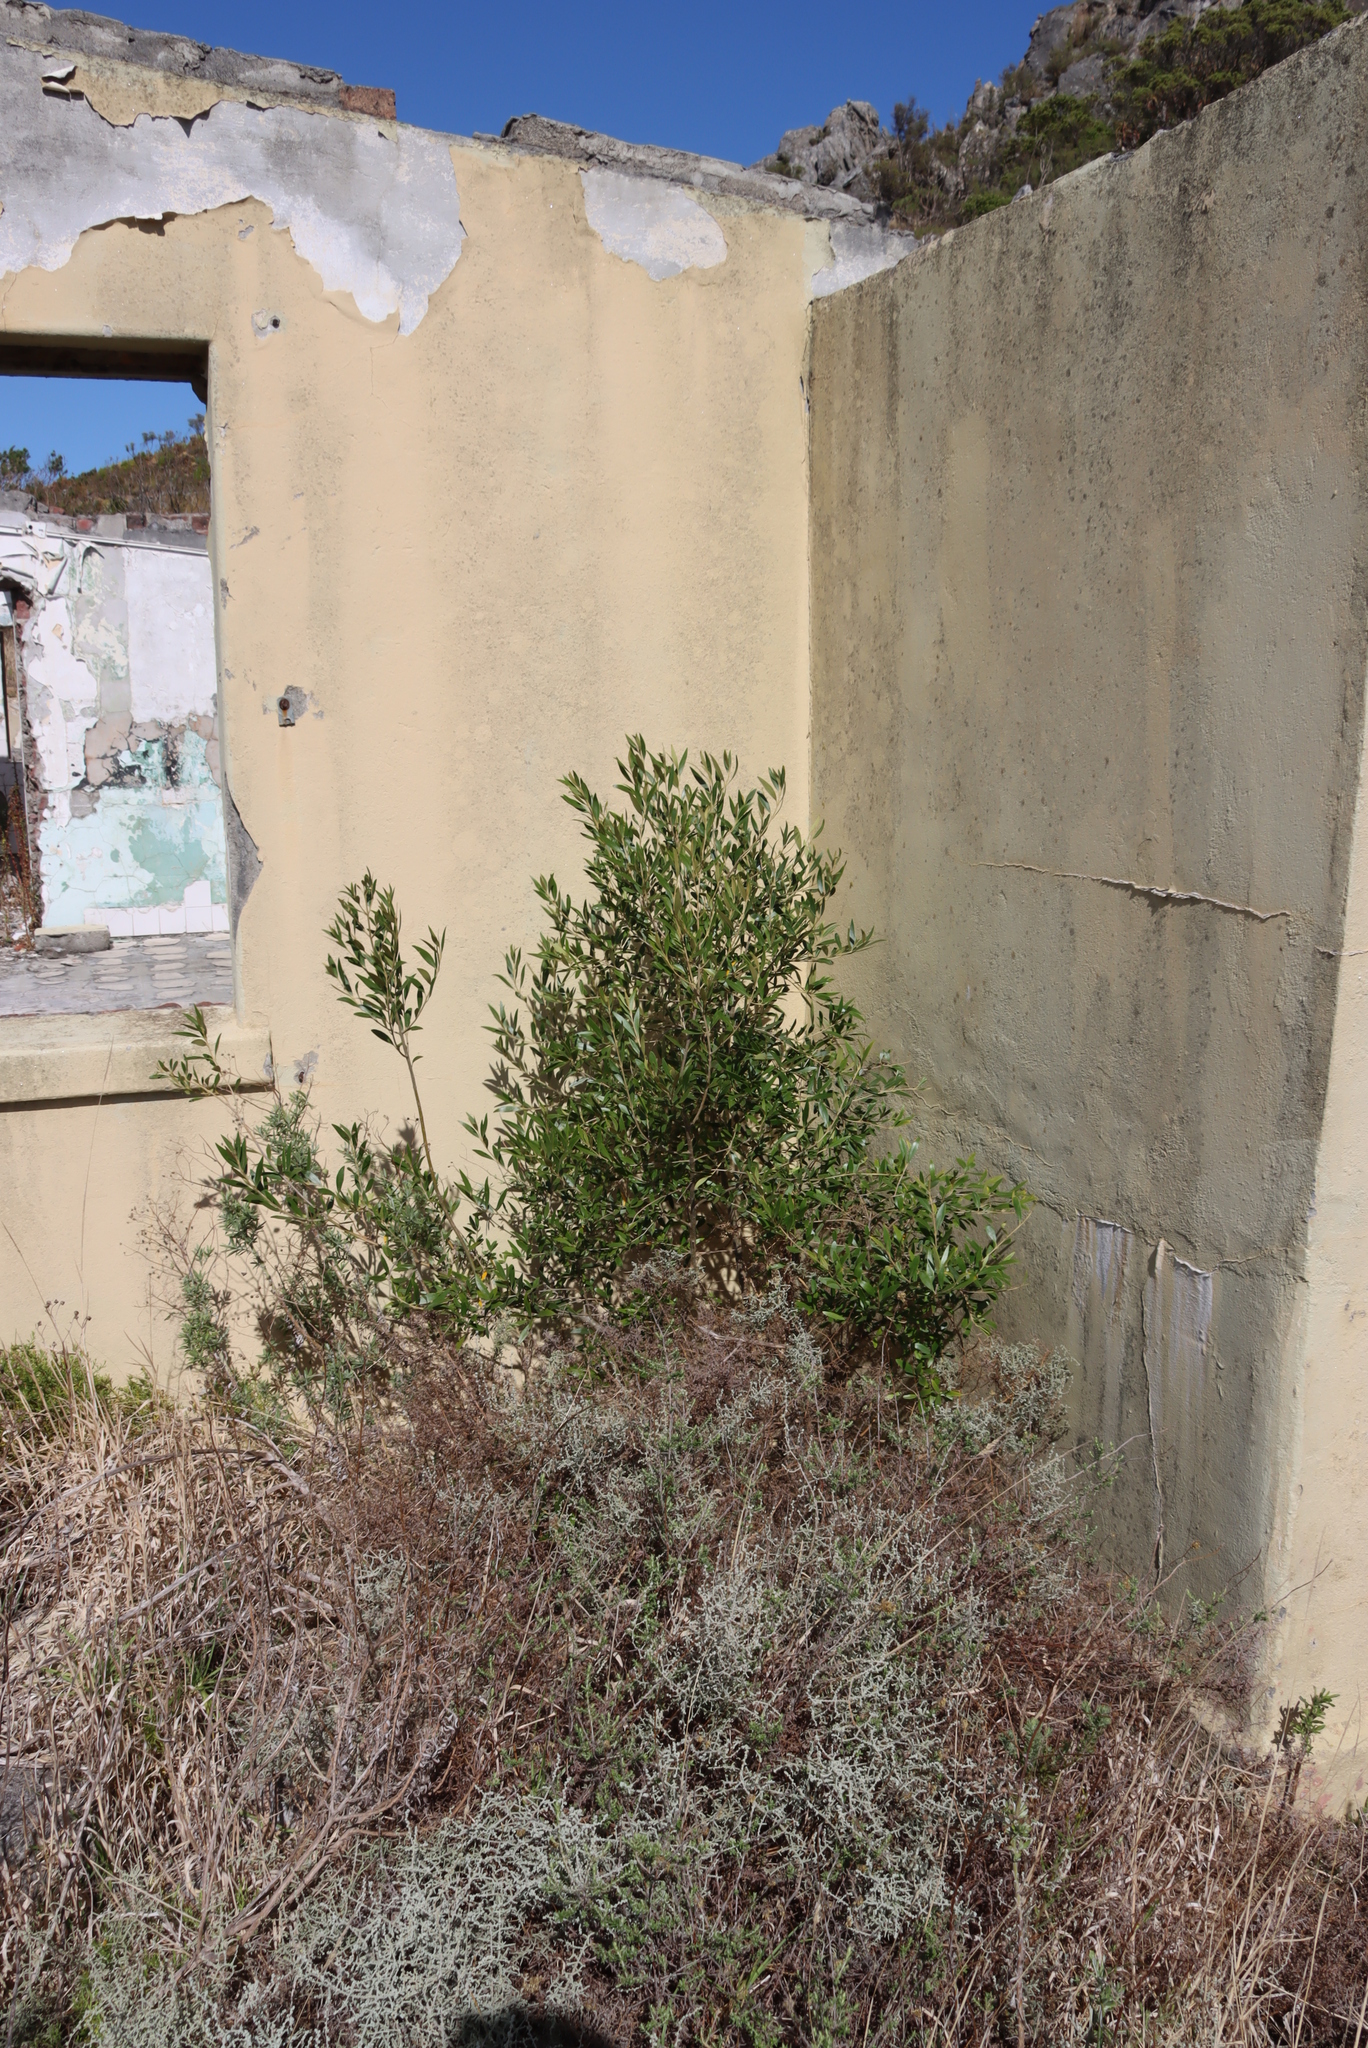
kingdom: Plantae
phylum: Tracheophyta
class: Magnoliopsida
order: Lamiales
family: Oleaceae
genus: Olea
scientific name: Olea europaea
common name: Olive
